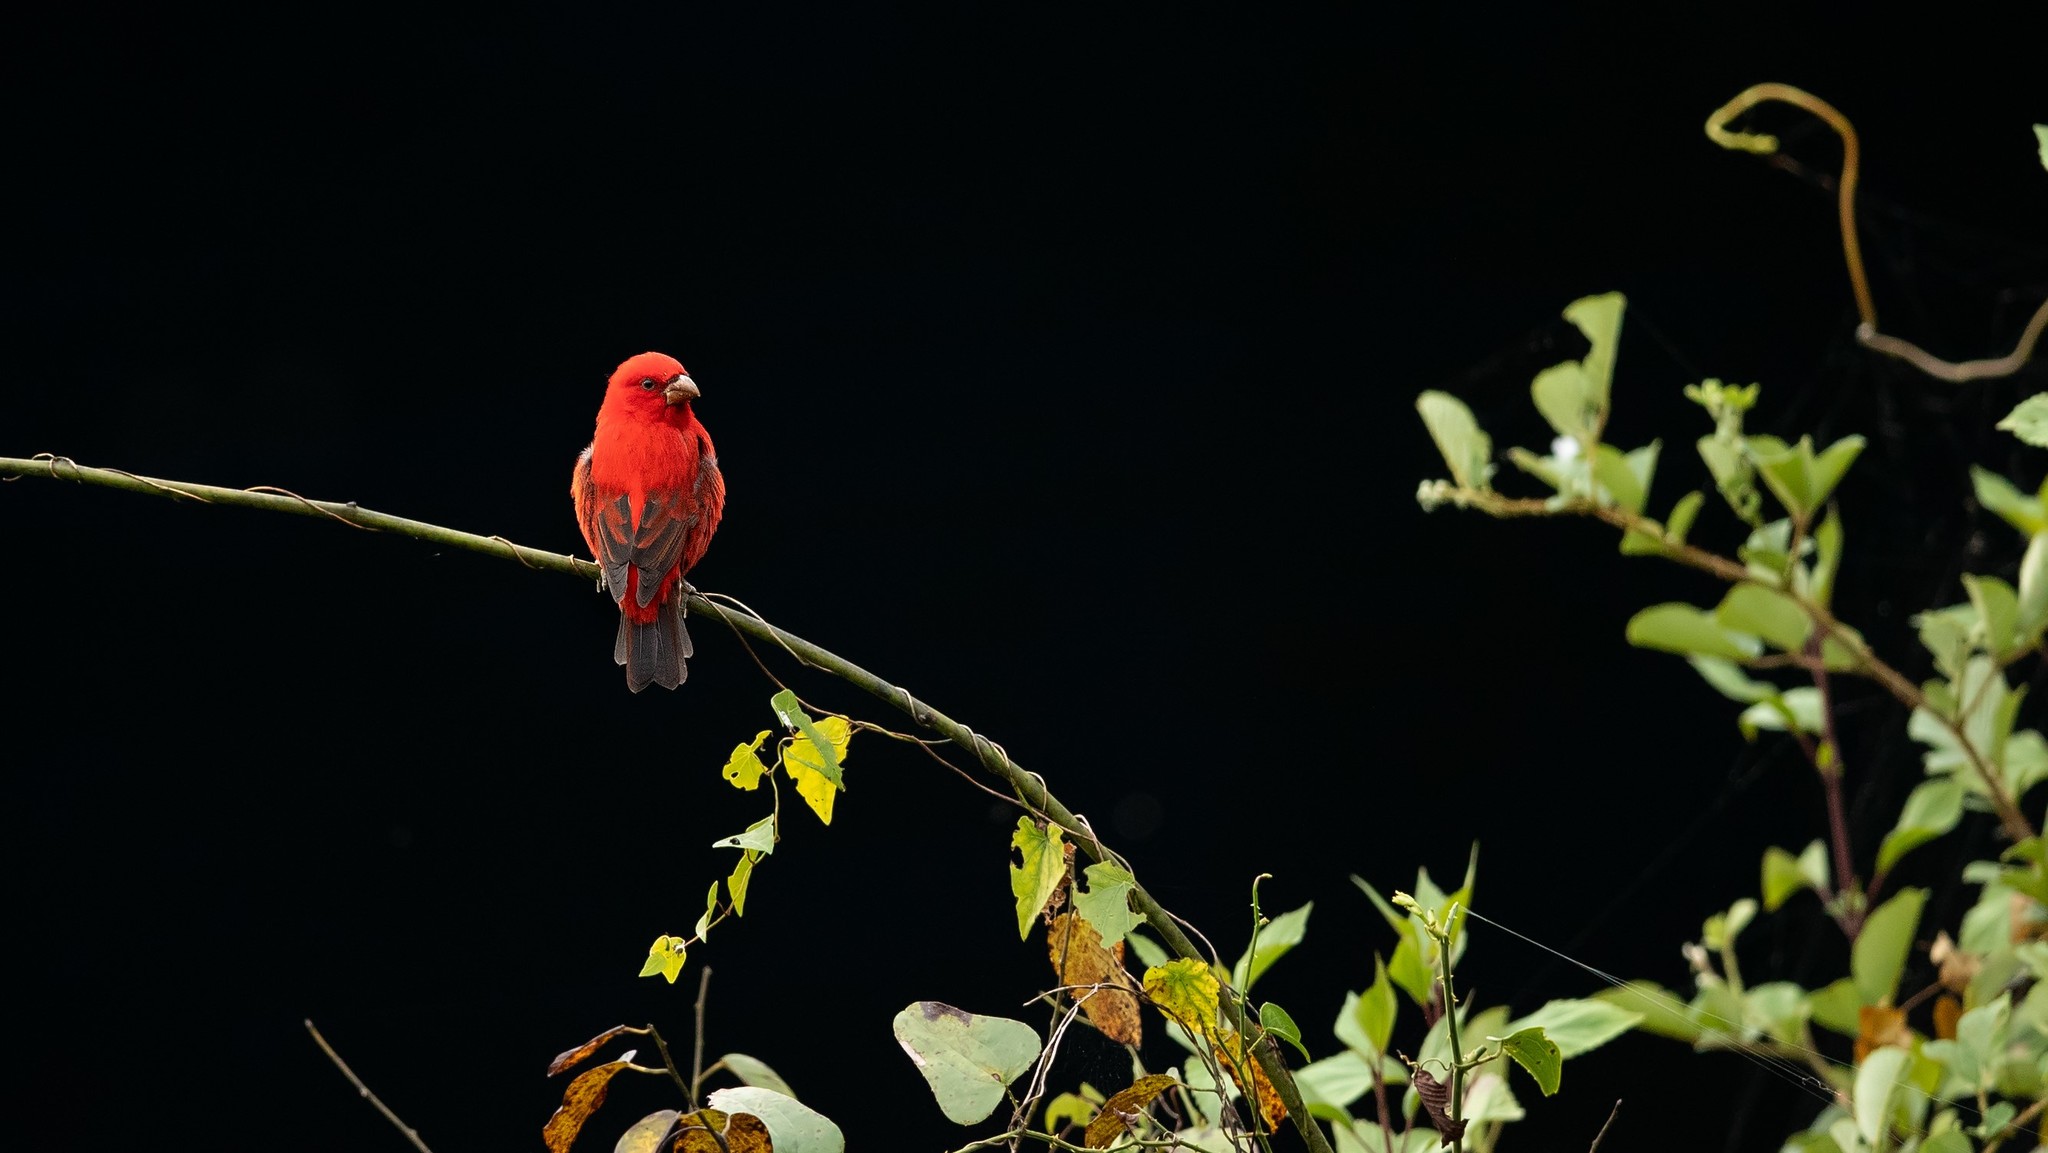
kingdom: Animalia
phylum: Chordata
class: Aves
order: Passeriformes
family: Fringillidae
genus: Carpodacus
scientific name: Carpodacus sipahi
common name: Scarlet finch
